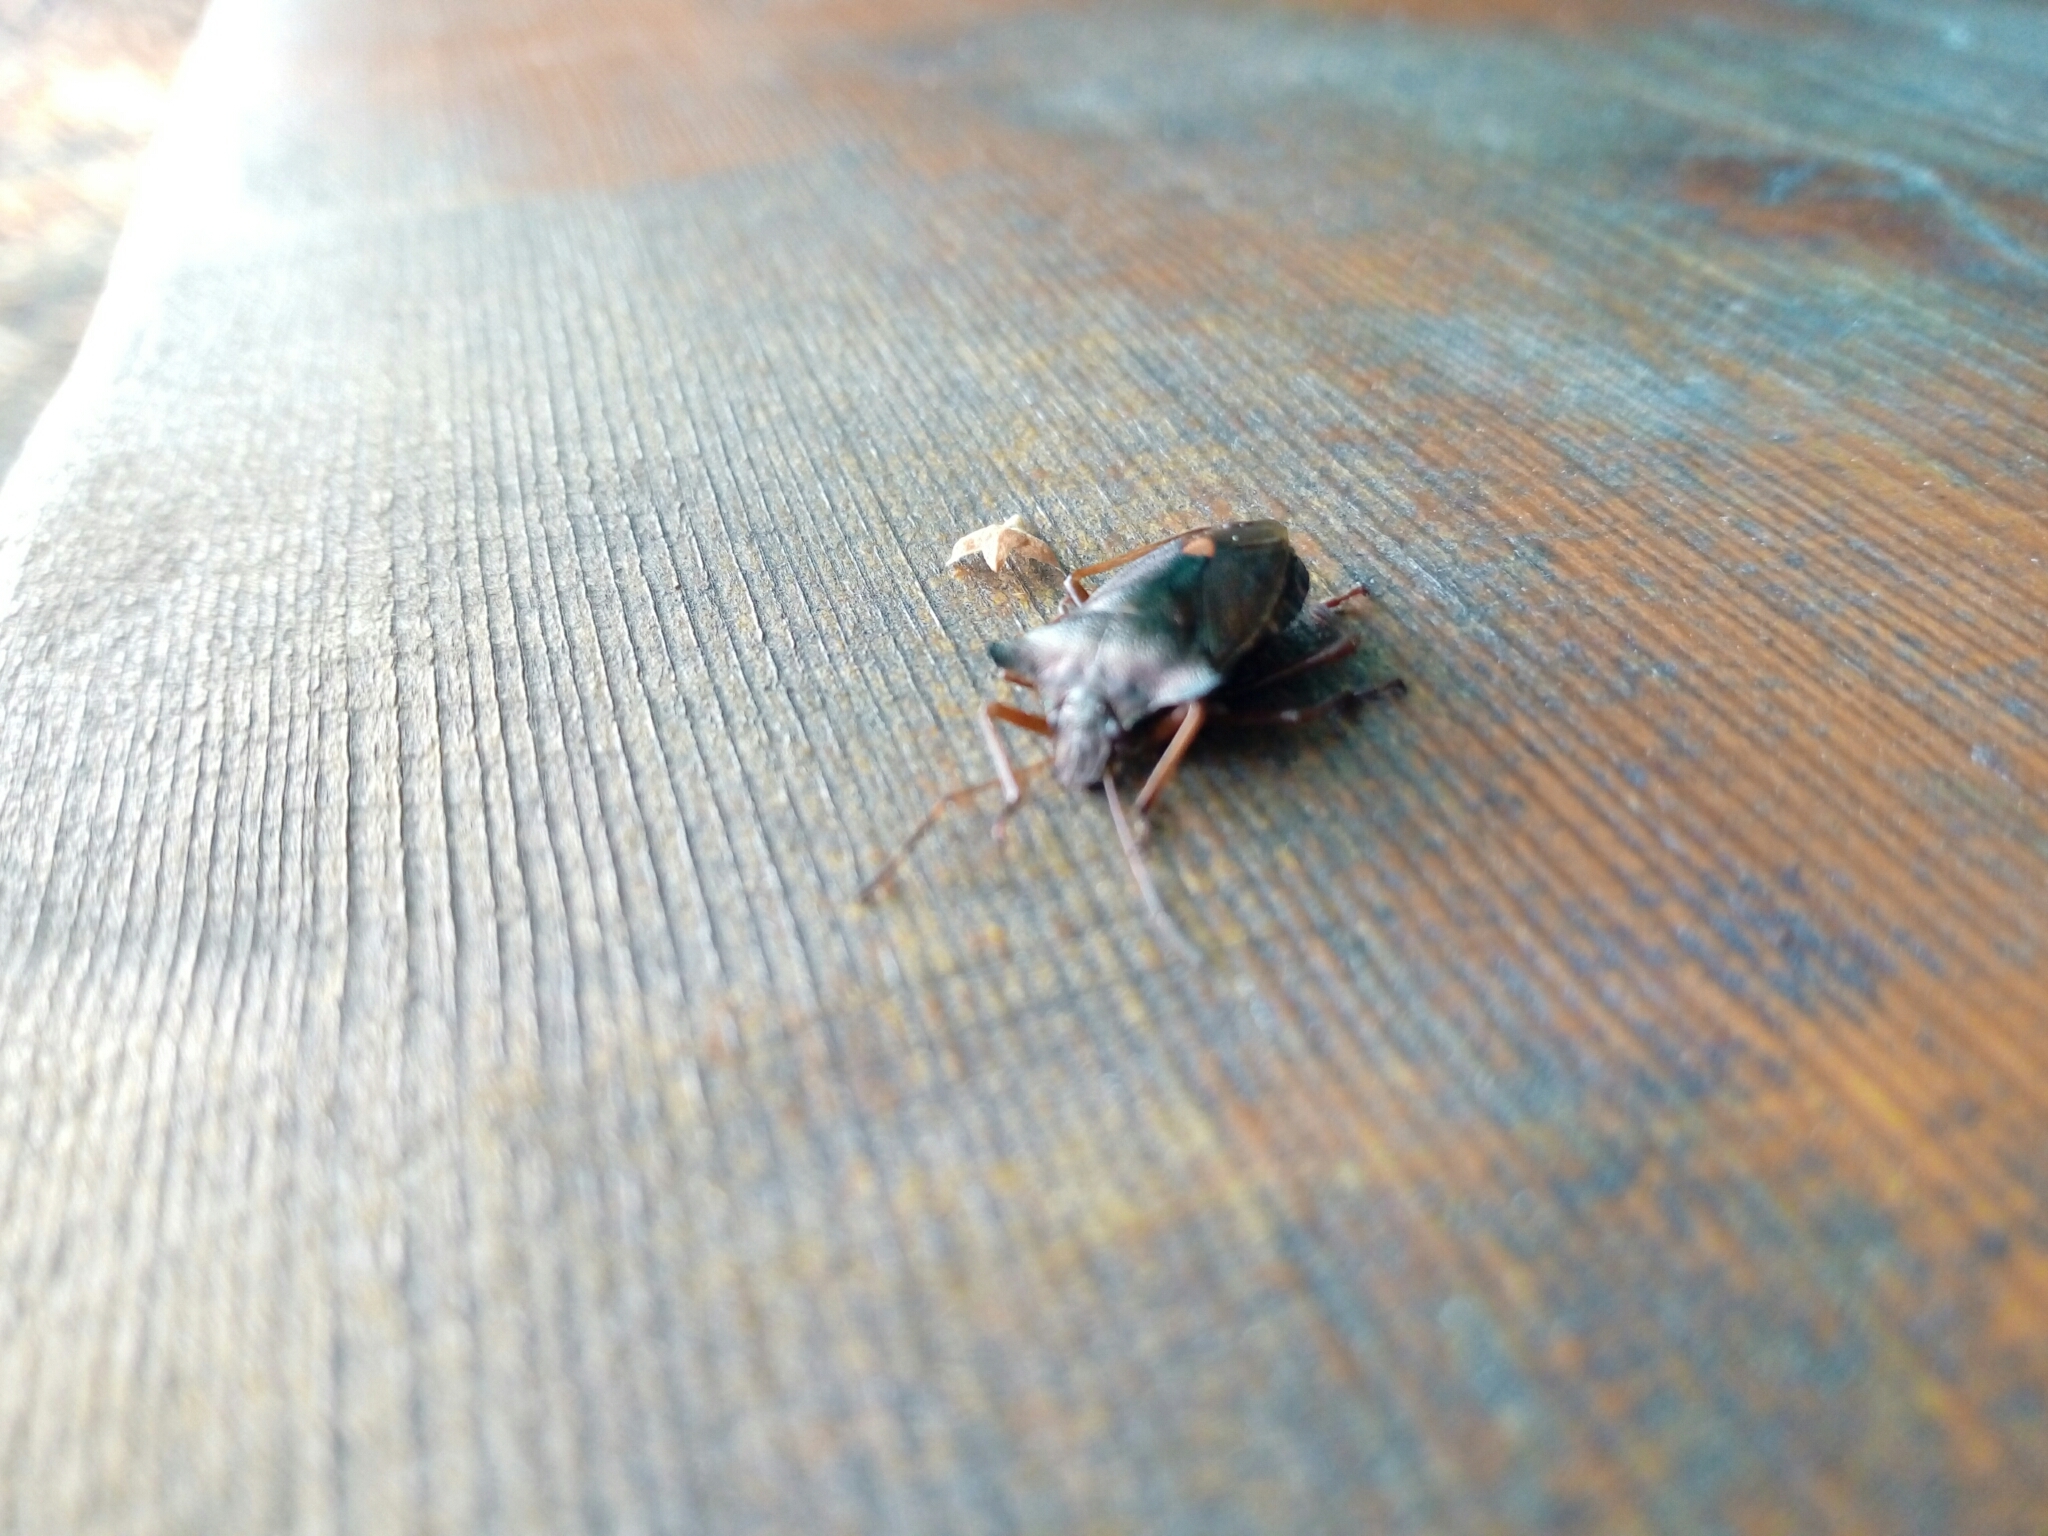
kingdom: Animalia
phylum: Arthropoda
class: Insecta
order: Hemiptera
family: Pentatomidae
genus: Pentatoma
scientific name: Pentatoma rufipes
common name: Forest bug
